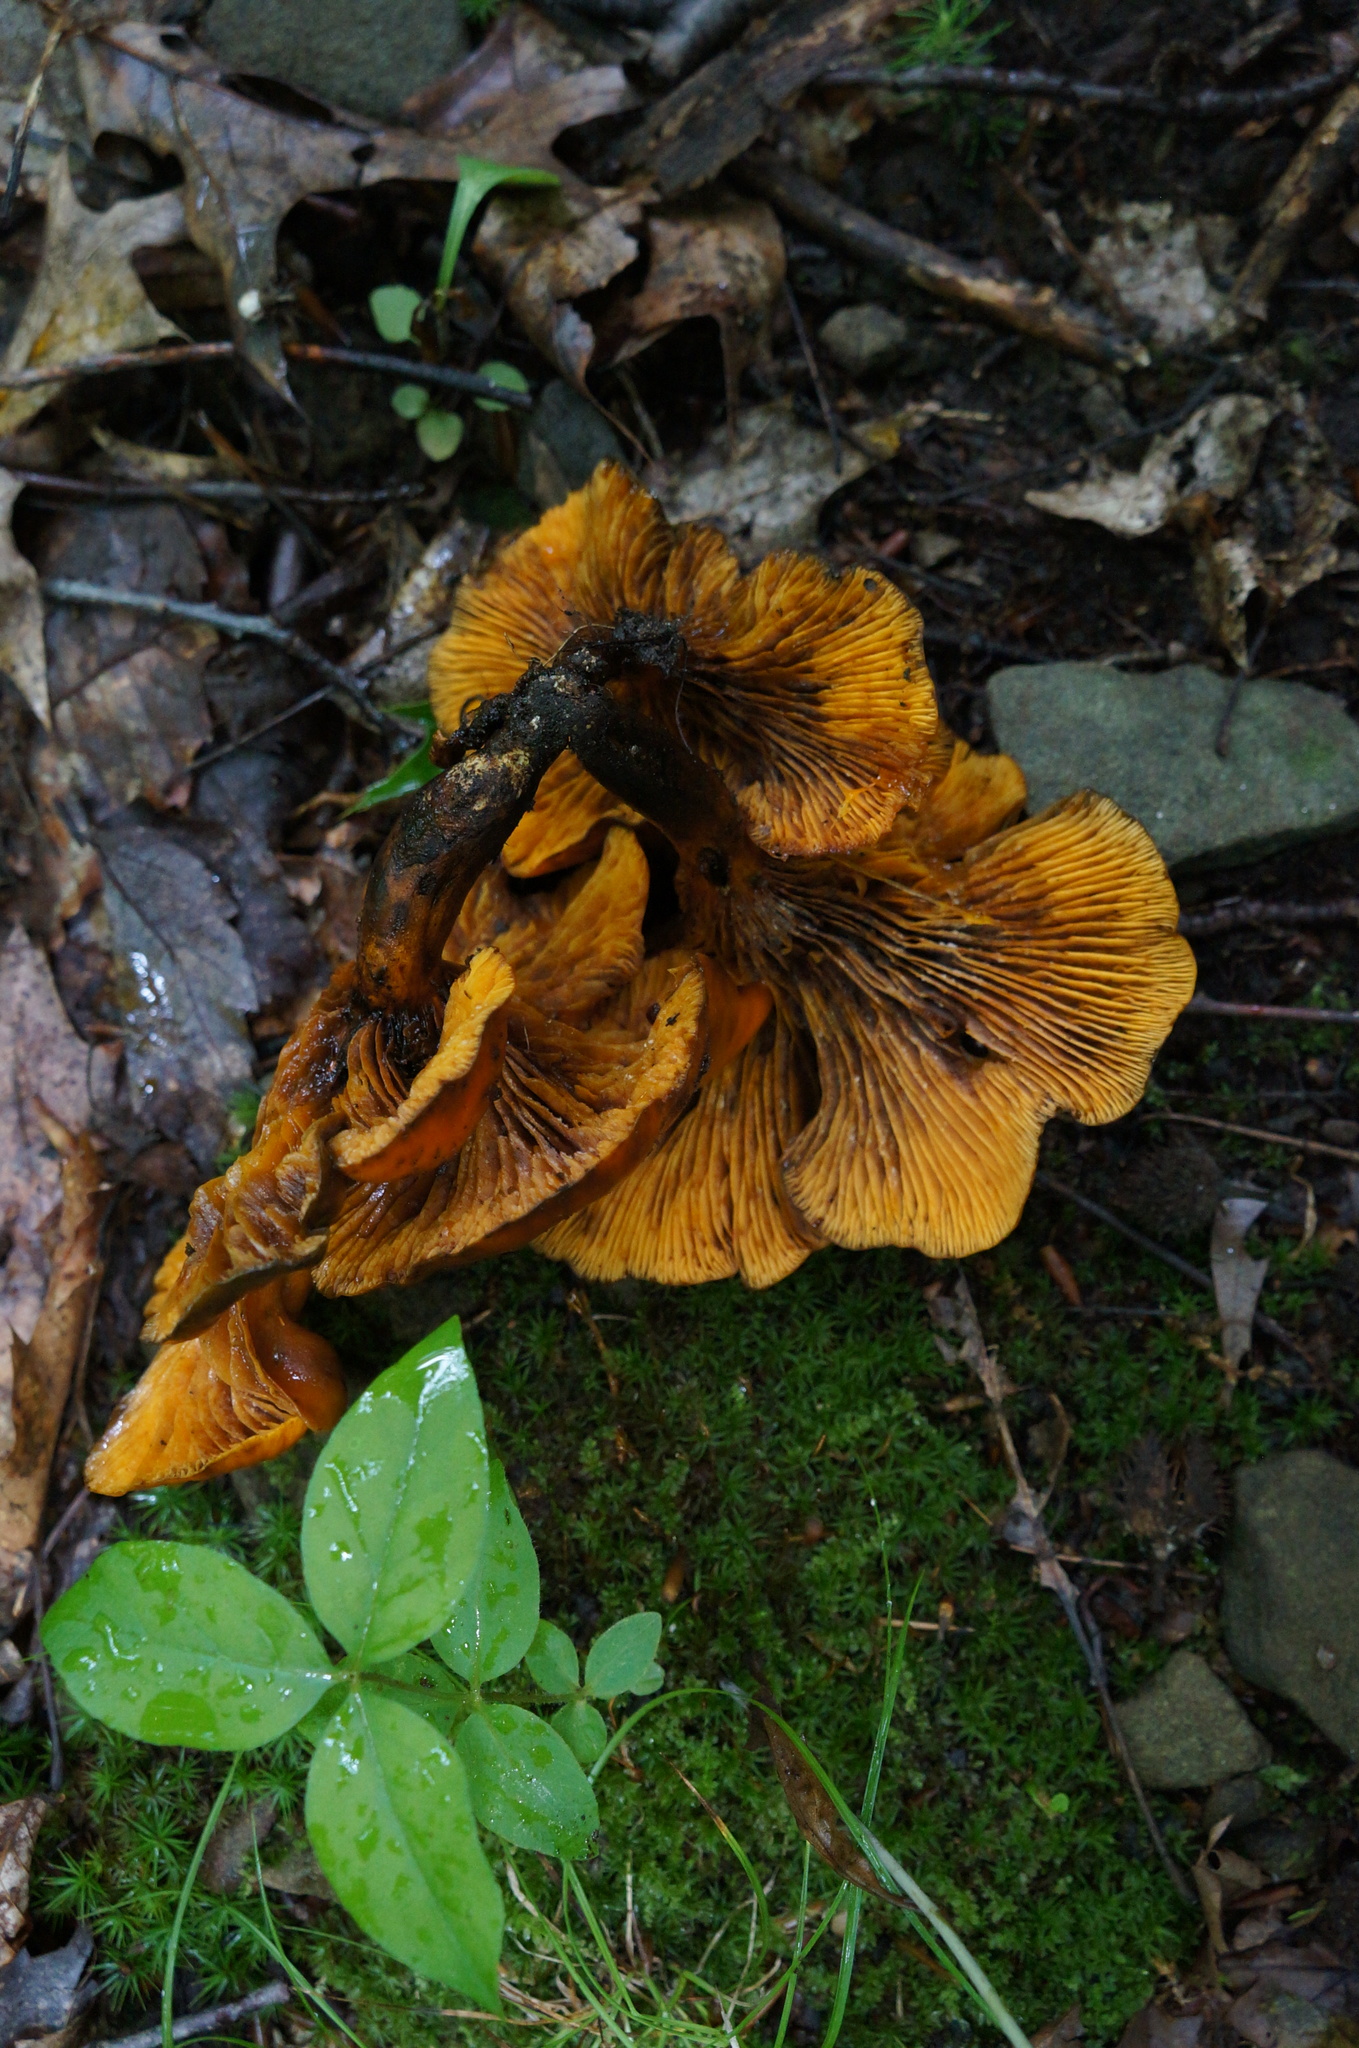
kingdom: Fungi
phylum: Basidiomycota
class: Agaricomycetes
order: Agaricales
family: Omphalotaceae
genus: Omphalotus
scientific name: Omphalotus illudens
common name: Jack o lantern
